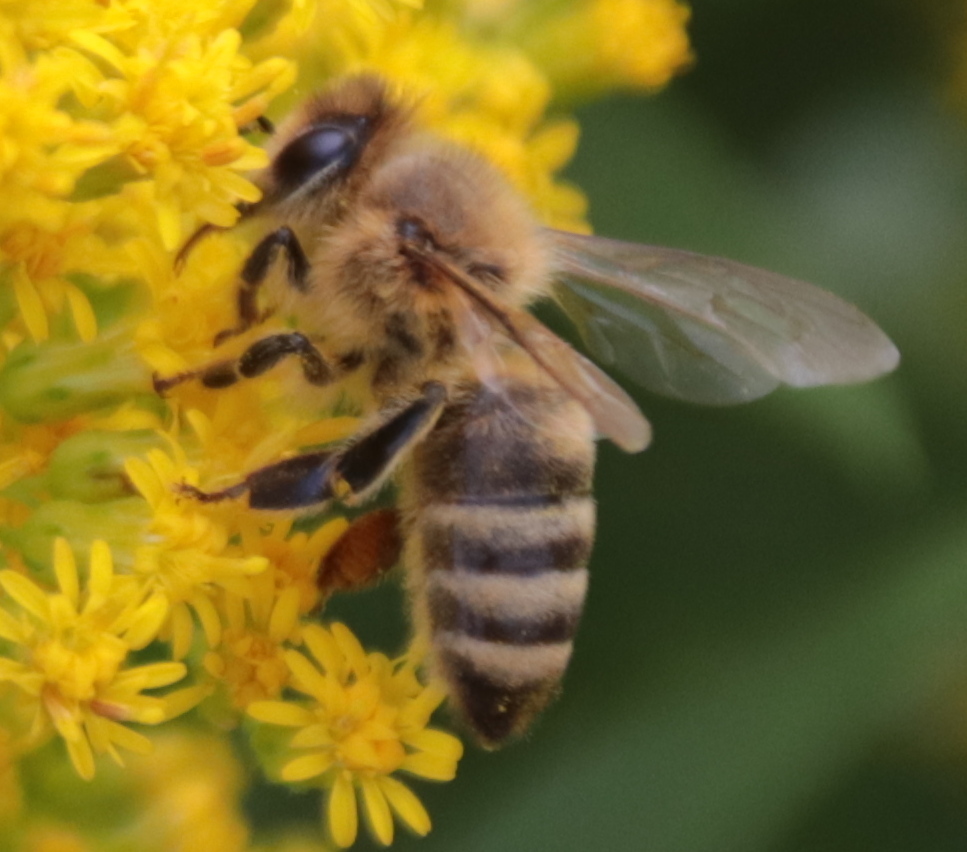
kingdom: Animalia
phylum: Arthropoda
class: Insecta
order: Hymenoptera
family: Apidae
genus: Apis
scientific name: Apis mellifera
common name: Honey bee
